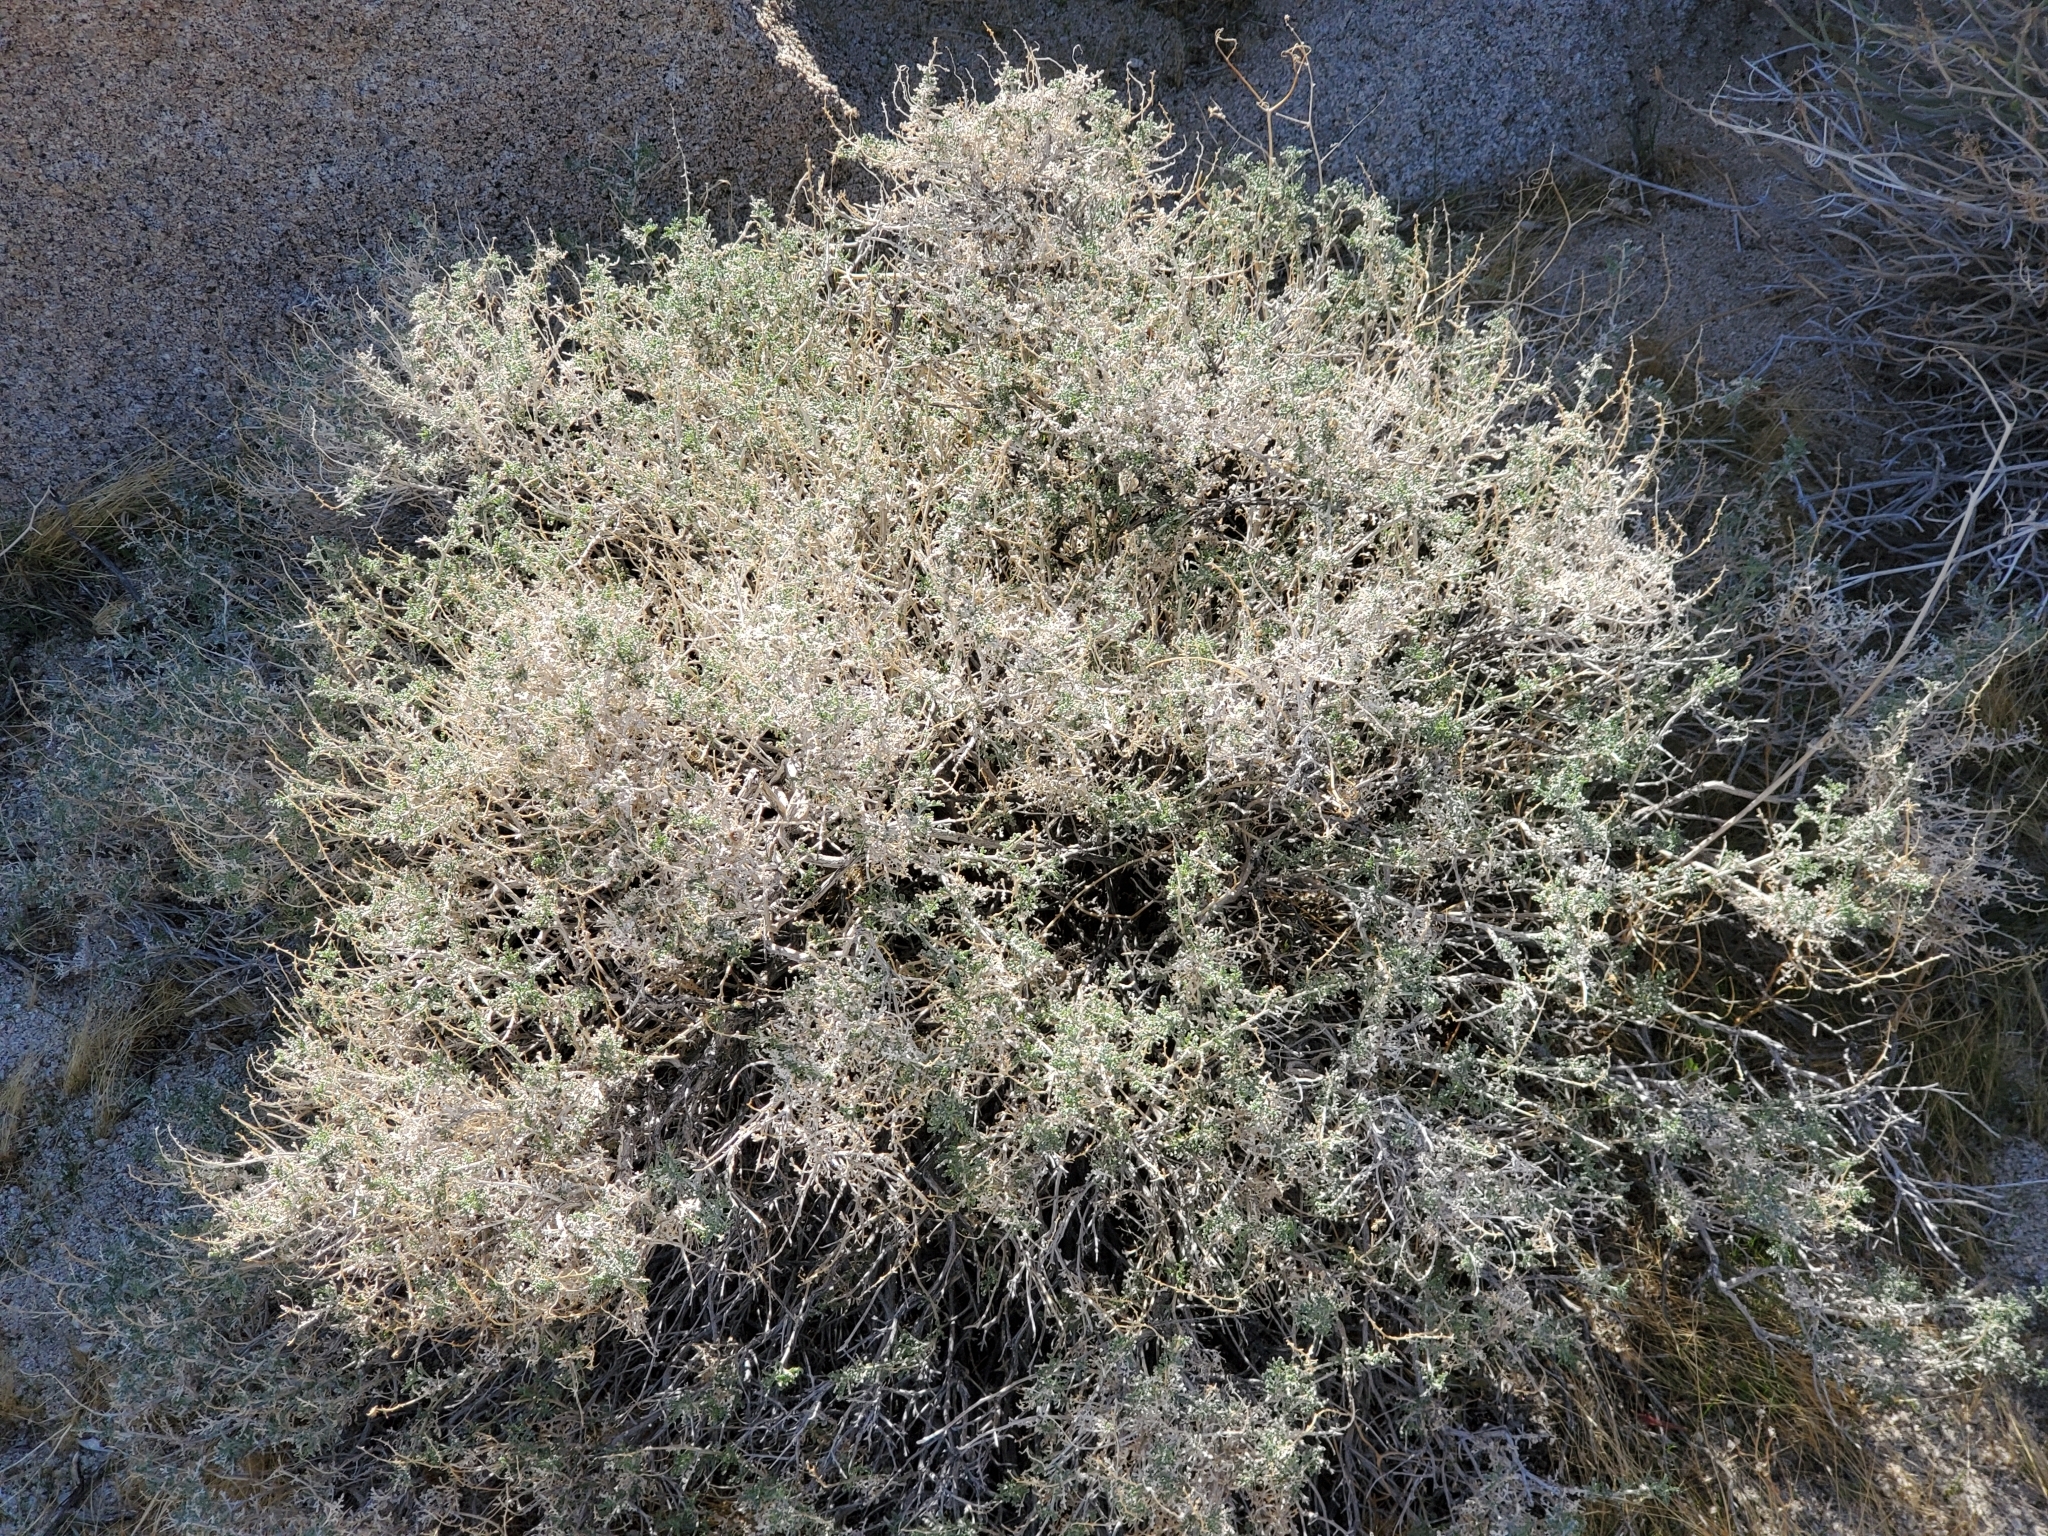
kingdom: Plantae
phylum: Tracheophyta
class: Magnoliopsida
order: Asterales
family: Asteraceae
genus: Ambrosia
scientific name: Ambrosia dumosa
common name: Bur-sage
